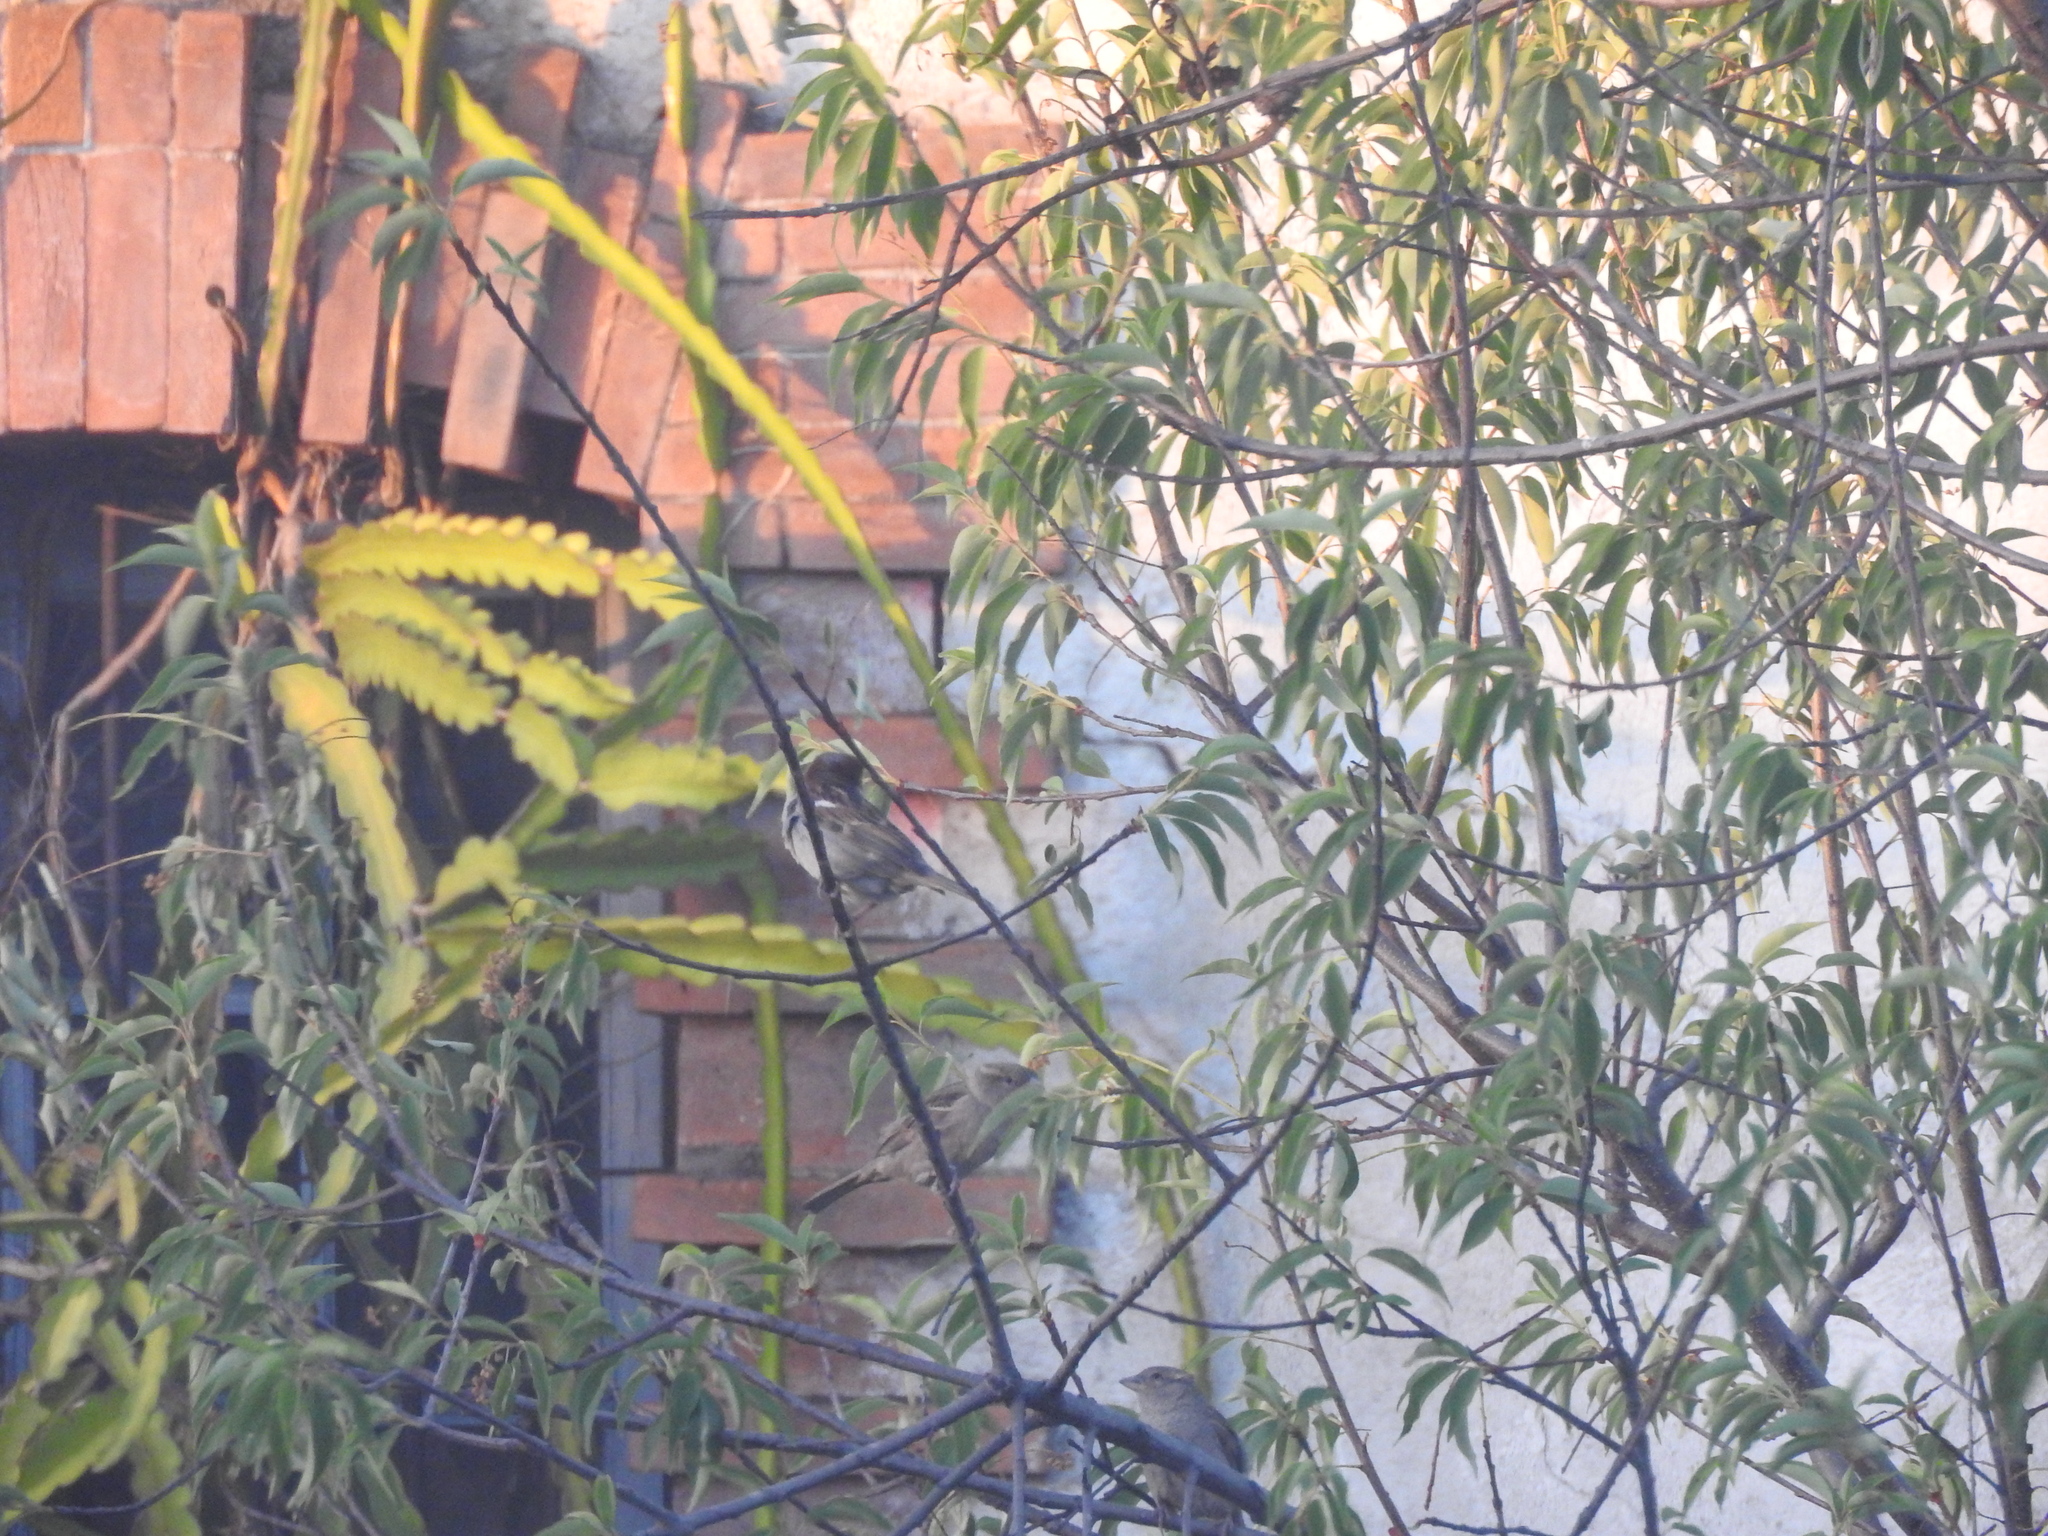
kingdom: Animalia
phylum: Chordata
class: Aves
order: Passeriformes
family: Passeridae
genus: Passer
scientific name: Passer domesticus
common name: House sparrow
